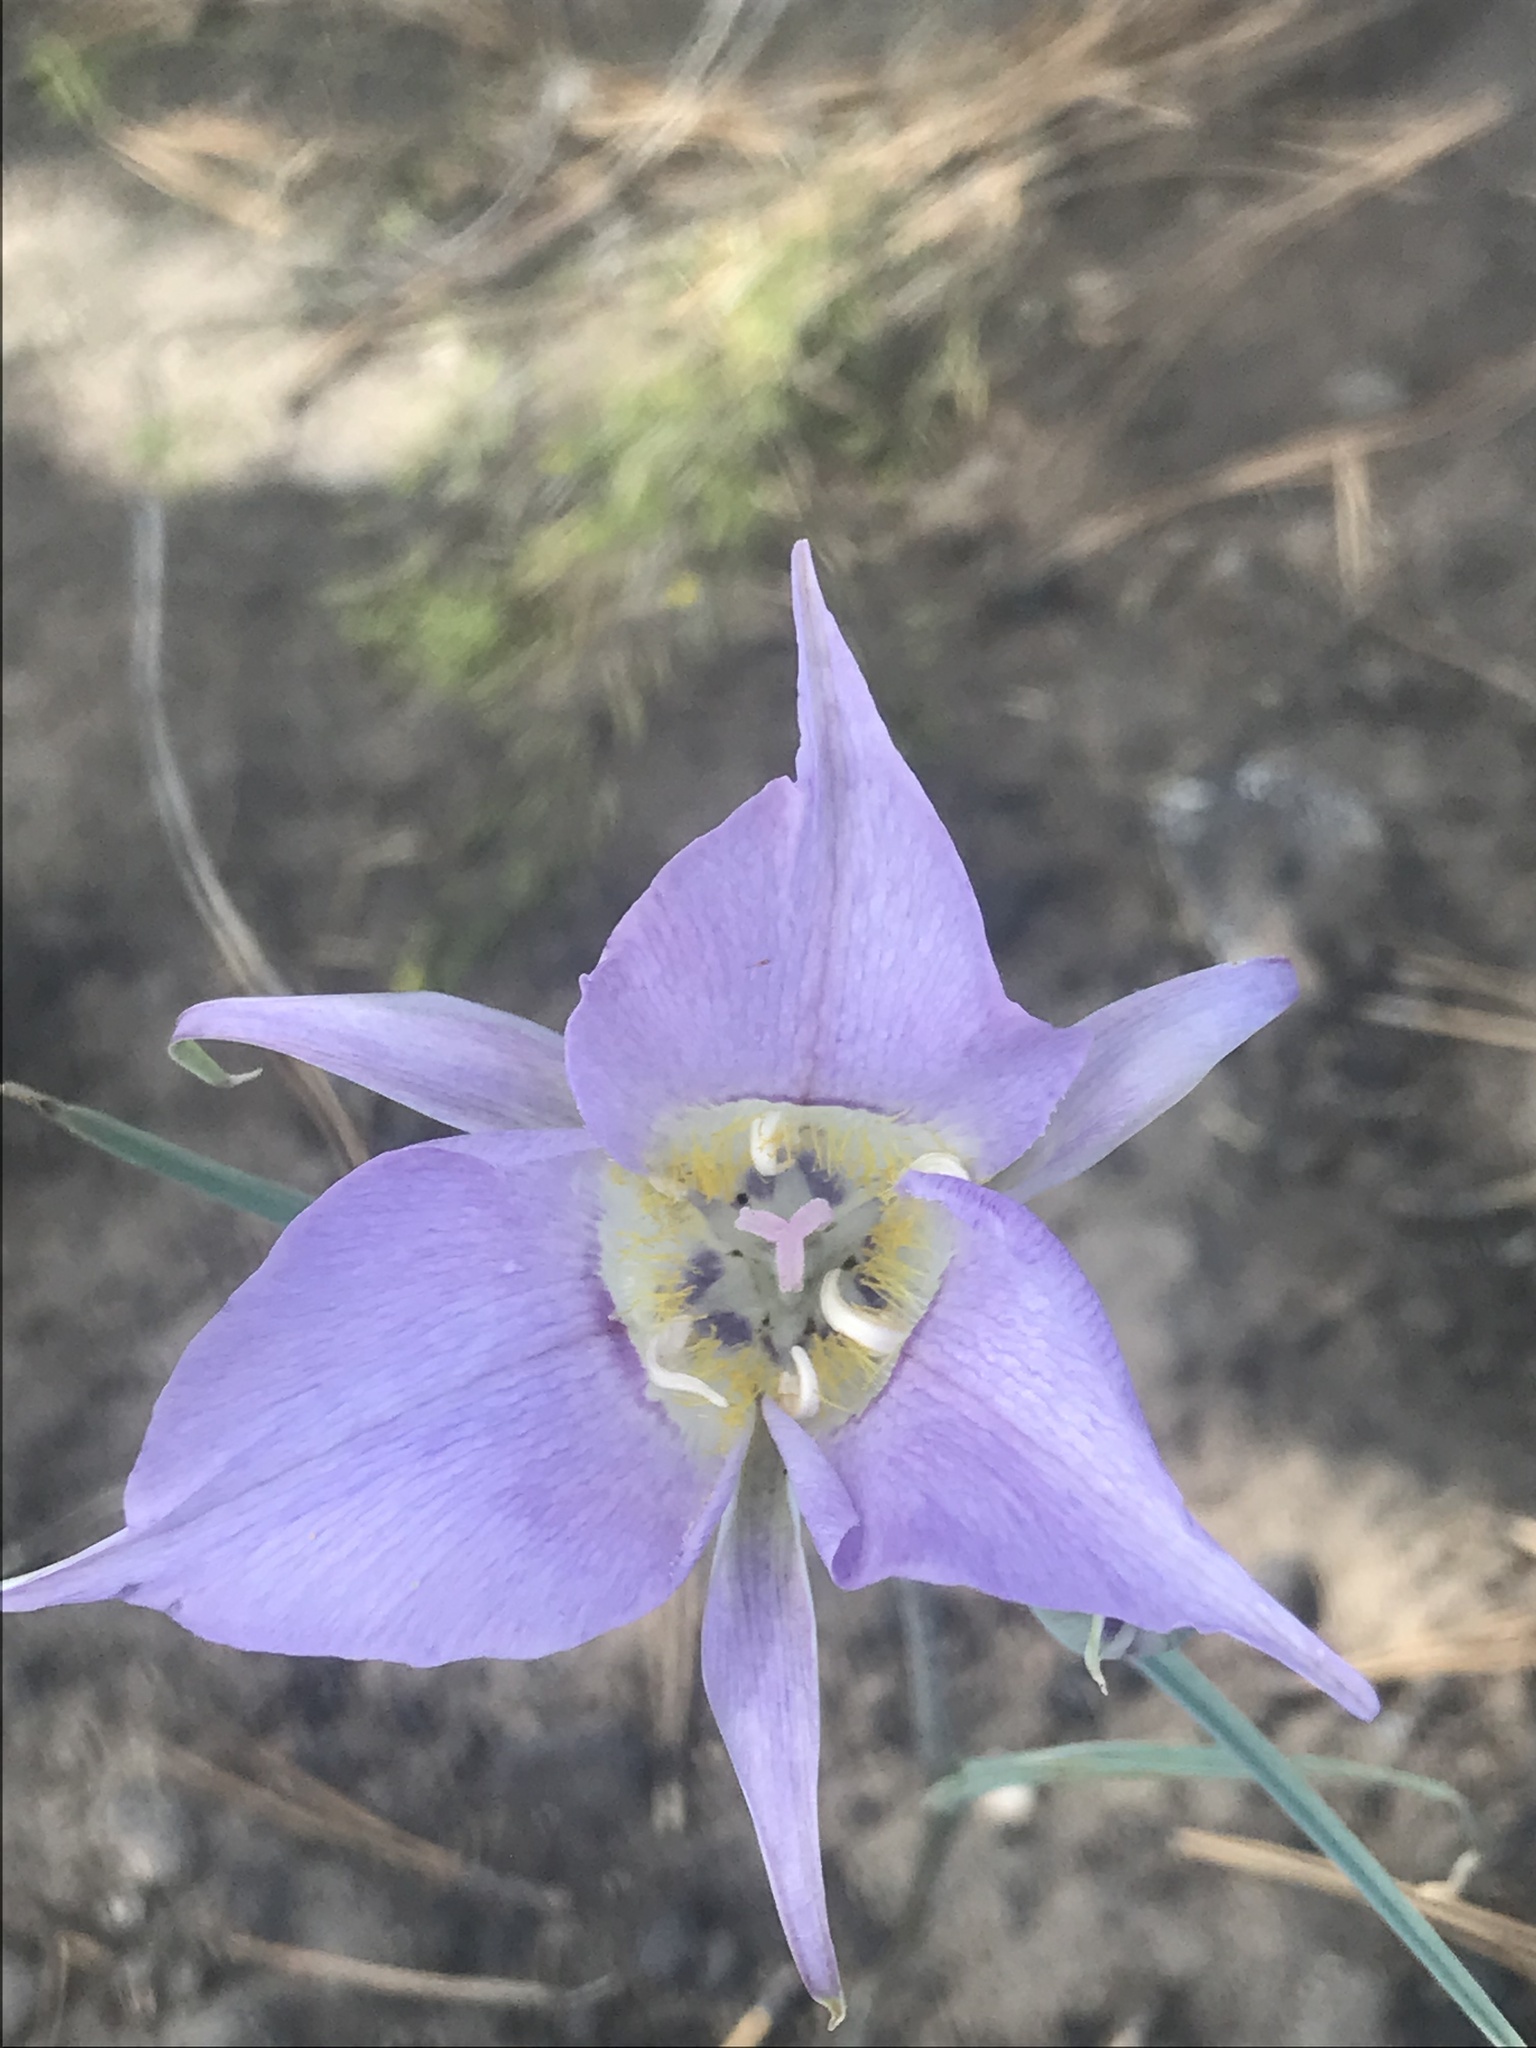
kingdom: Plantae
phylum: Tracheophyta
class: Liliopsida
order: Liliales
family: Liliaceae
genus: Calochortus
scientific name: Calochortus macrocarpus
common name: Green-band mariposa lily
